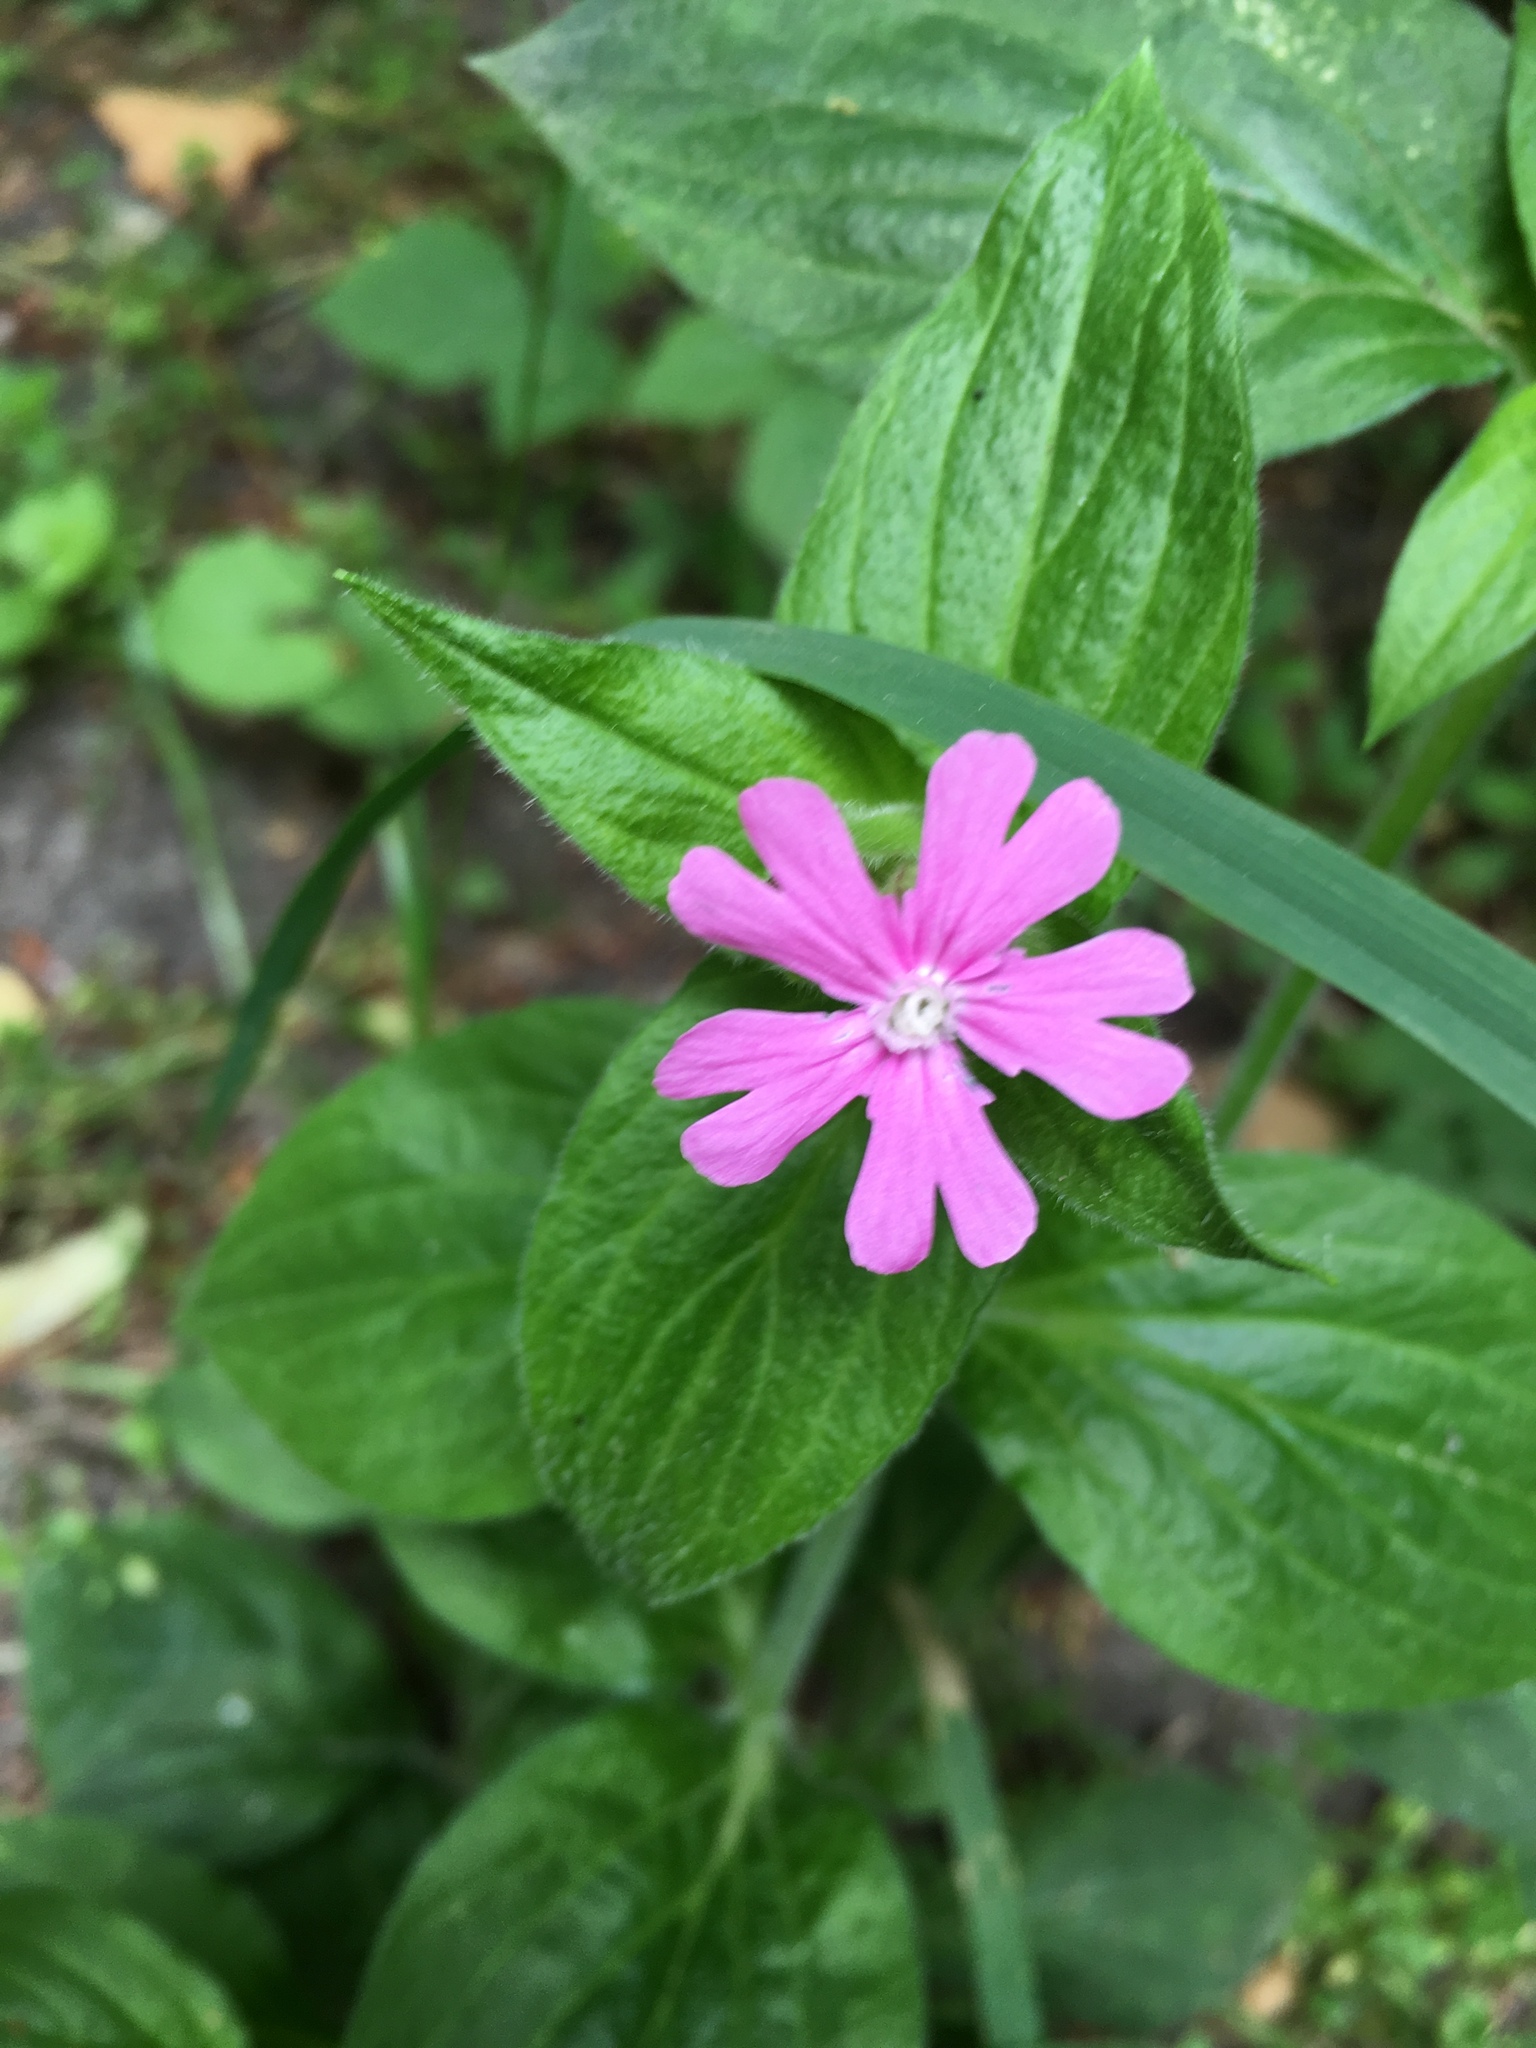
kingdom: Plantae
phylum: Tracheophyta
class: Magnoliopsida
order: Caryophyllales
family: Caryophyllaceae
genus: Silene
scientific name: Silene dioica
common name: Red campion
